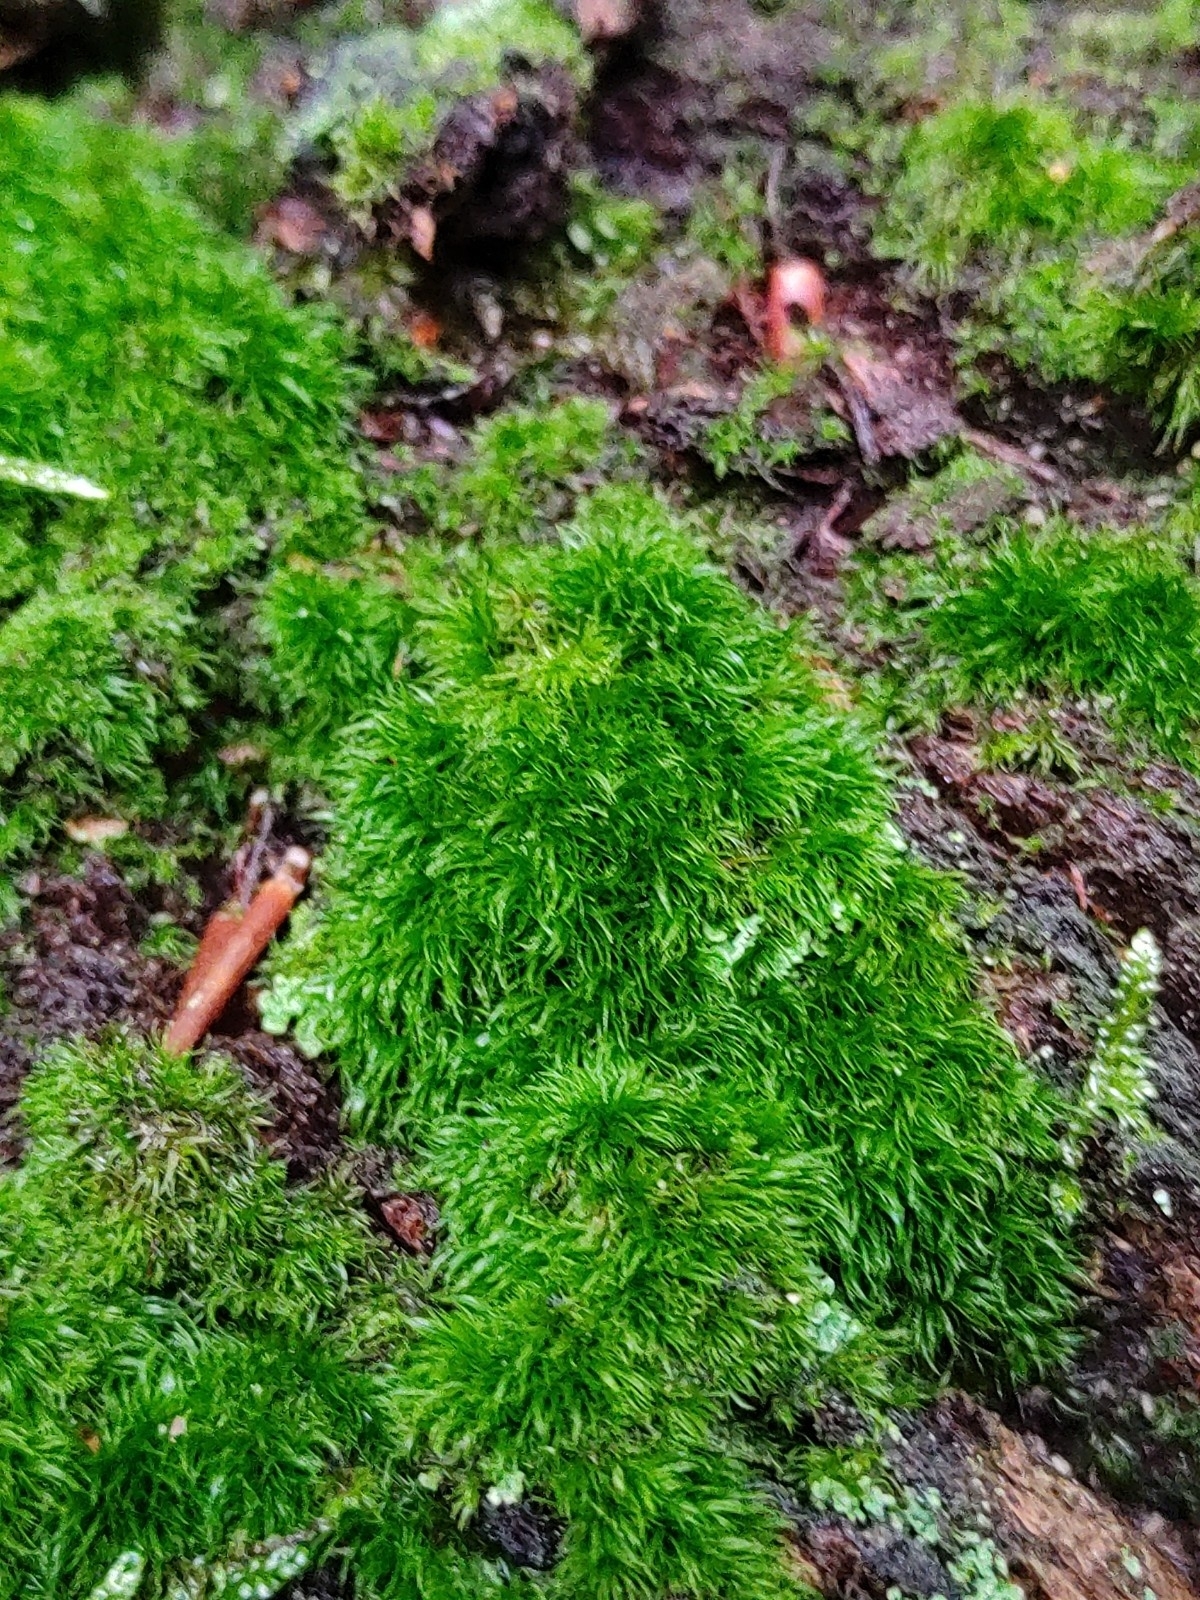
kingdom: Plantae
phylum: Bryophyta
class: Bryopsida
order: Dicranales
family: Dicranellaceae
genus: Dicranella
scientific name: Dicranella heteromalla
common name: Silky forklet moss
